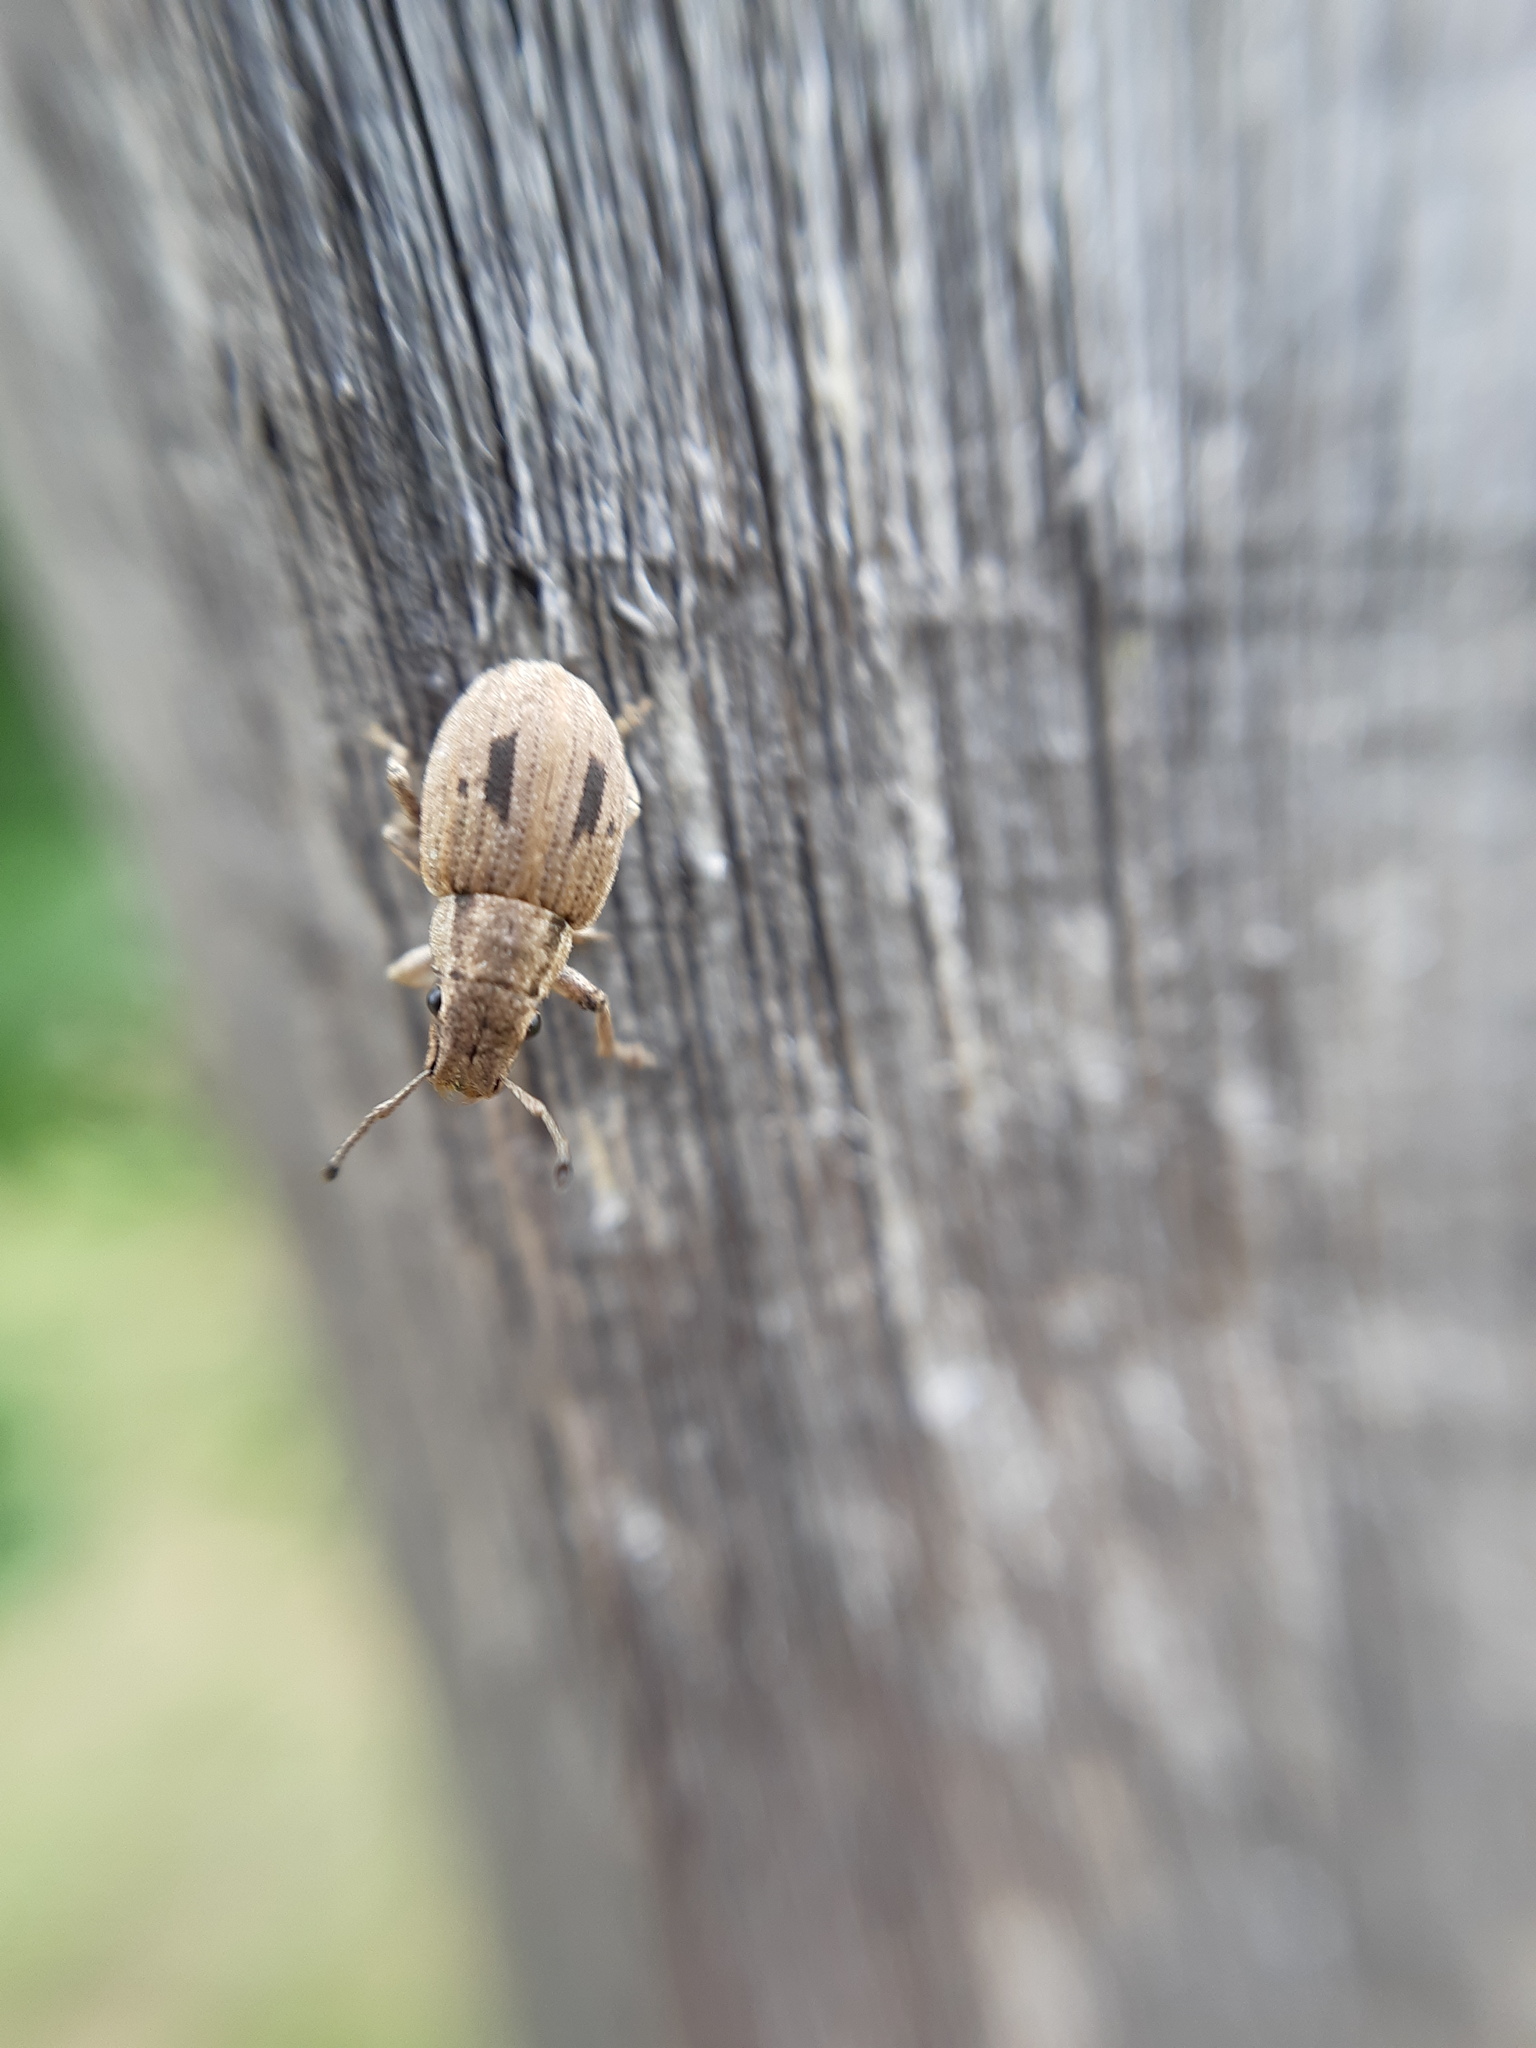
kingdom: Animalia
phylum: Arthropoda
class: Insecta
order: Coleoptera
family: Curculionidae
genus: Eurymetopus
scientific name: Eurymetopus birabeni
